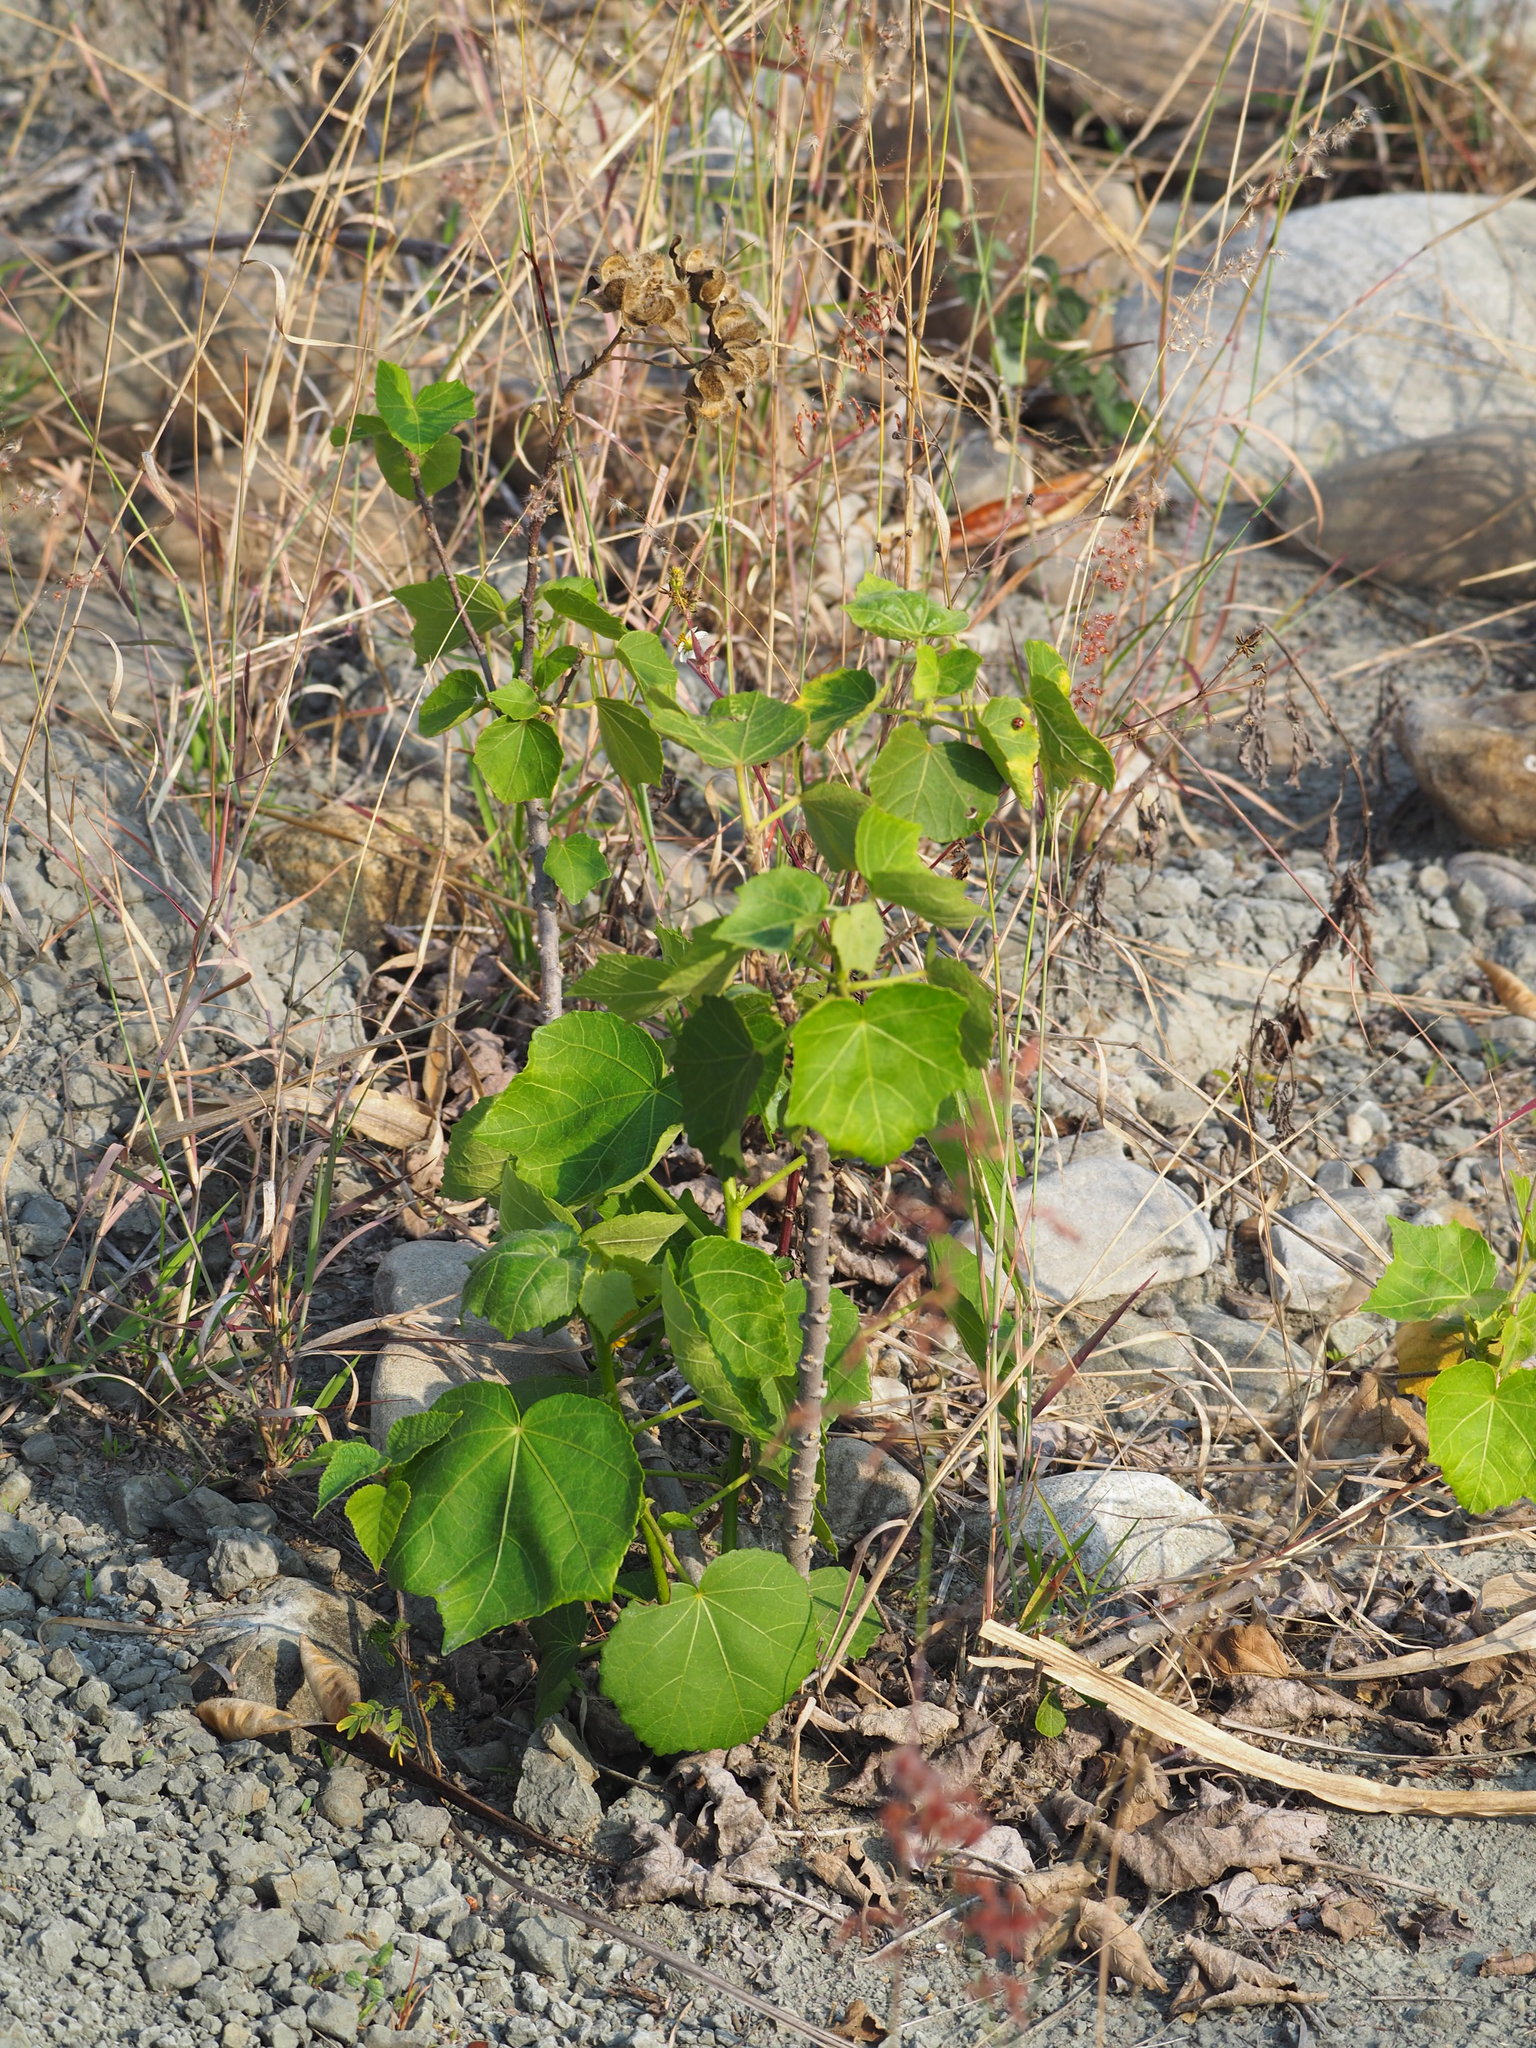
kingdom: Plantae
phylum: Tracheophyta
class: Magnoliopsida
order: Malvales
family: Malvaceae
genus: Hibiscus
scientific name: Hibiscus taiwanensis
